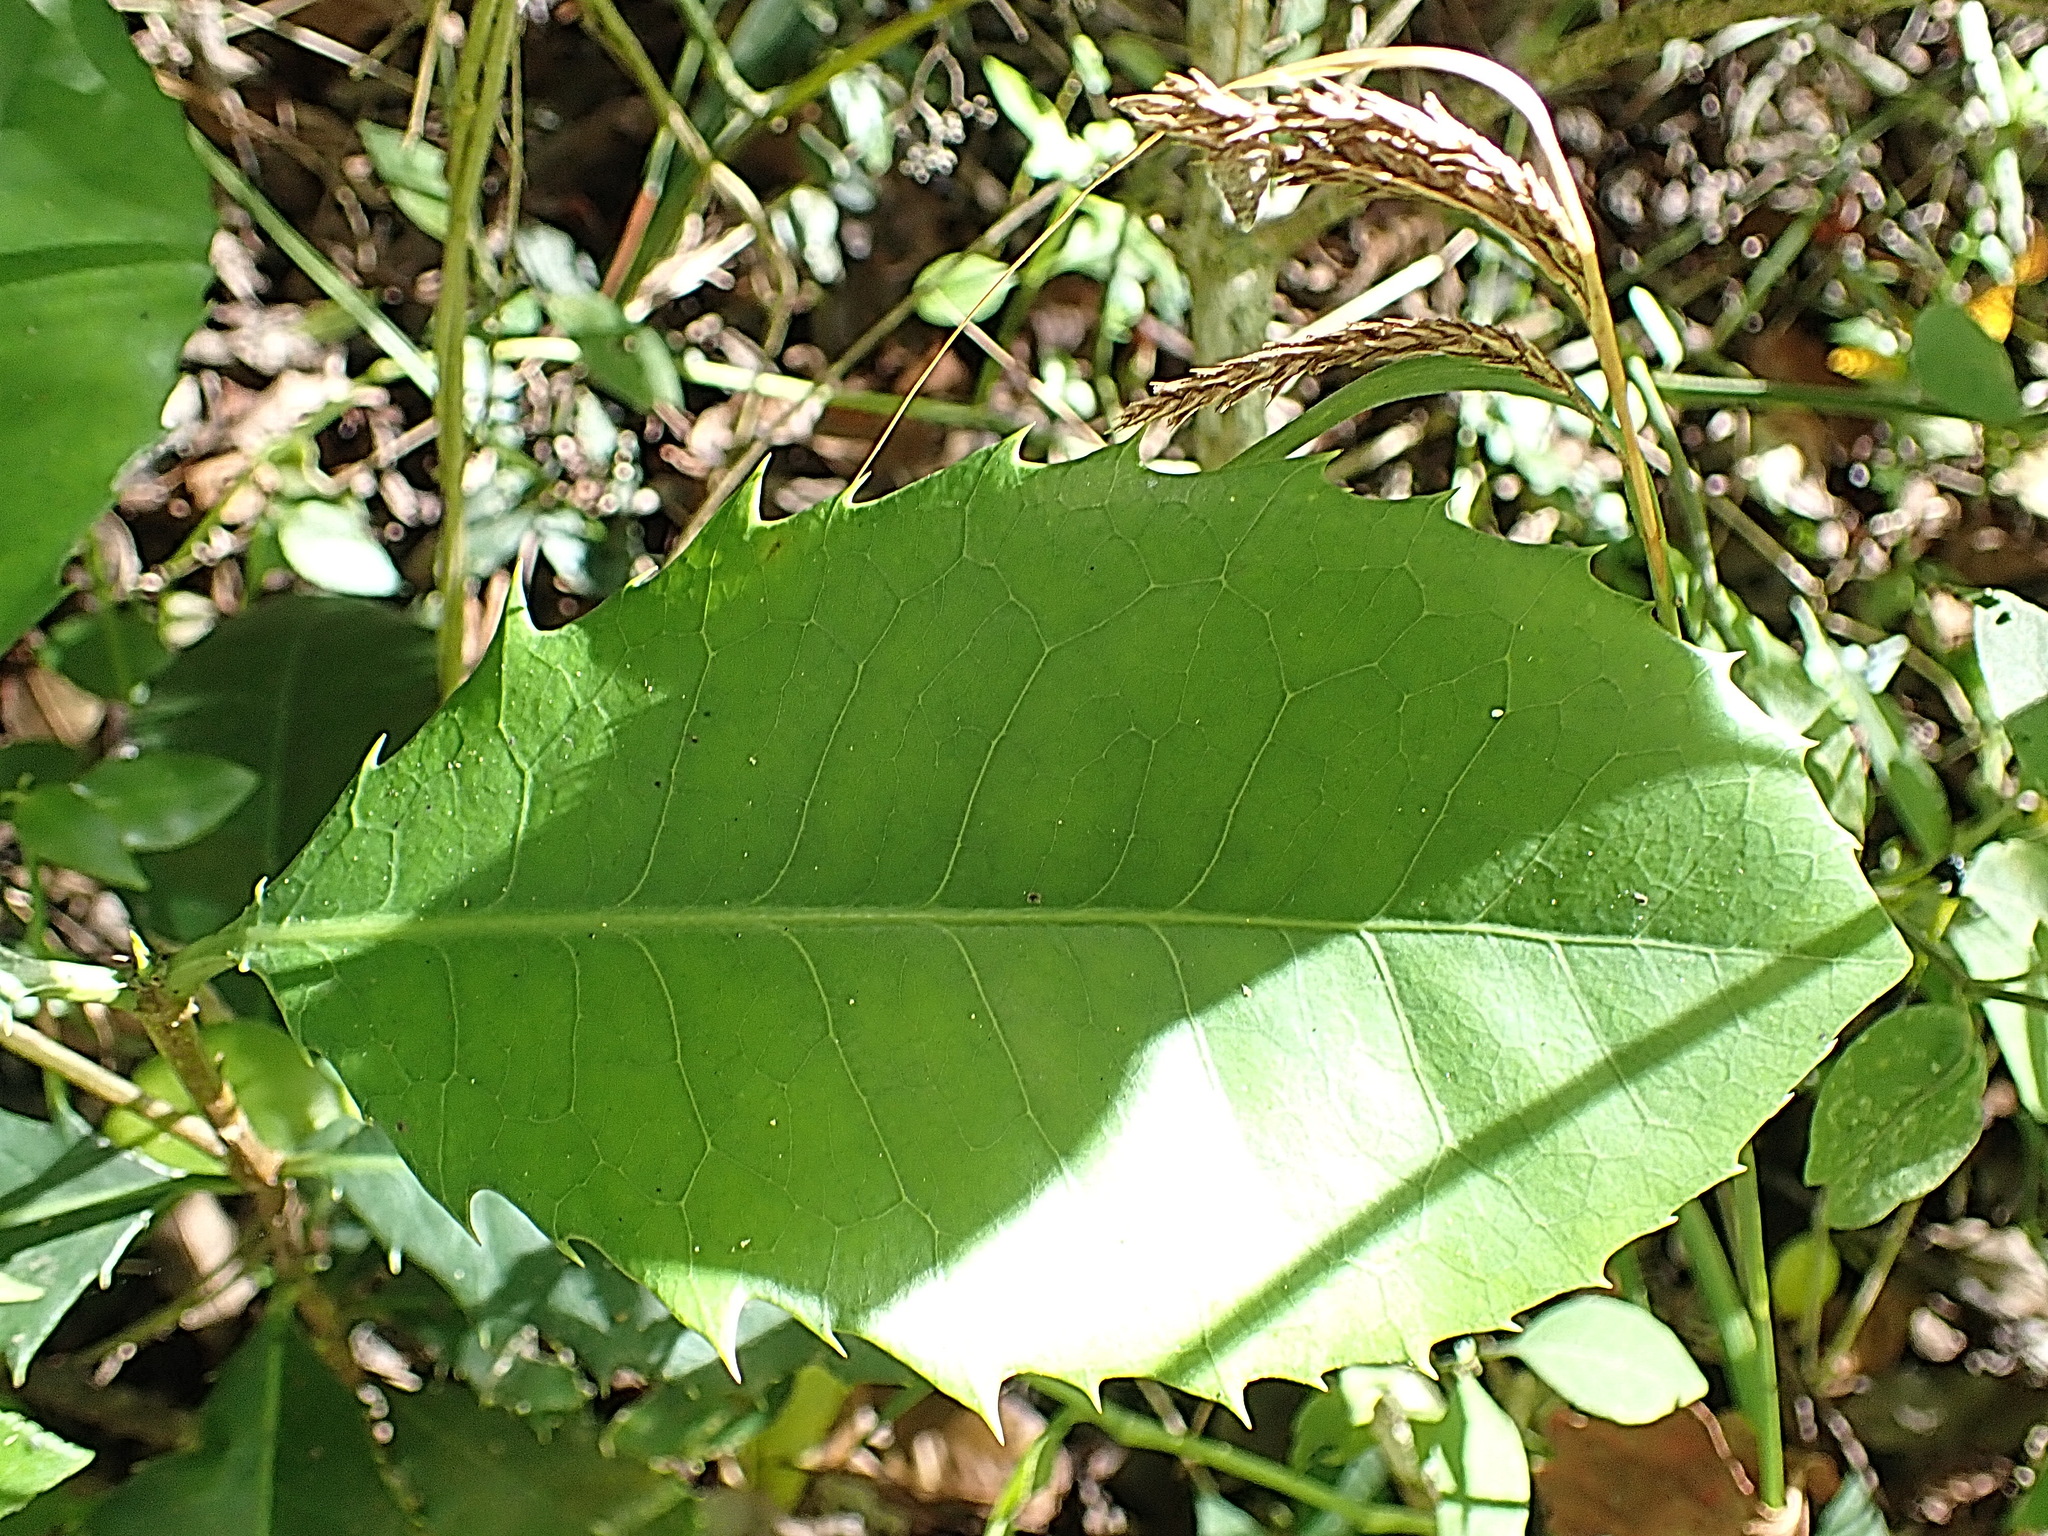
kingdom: Plantae
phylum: Tracheophyta
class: Magnoliopsida
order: Celastrales
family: Celastraceae
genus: Elaeodendron
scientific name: Elaeodendron croceum
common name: Saffron
